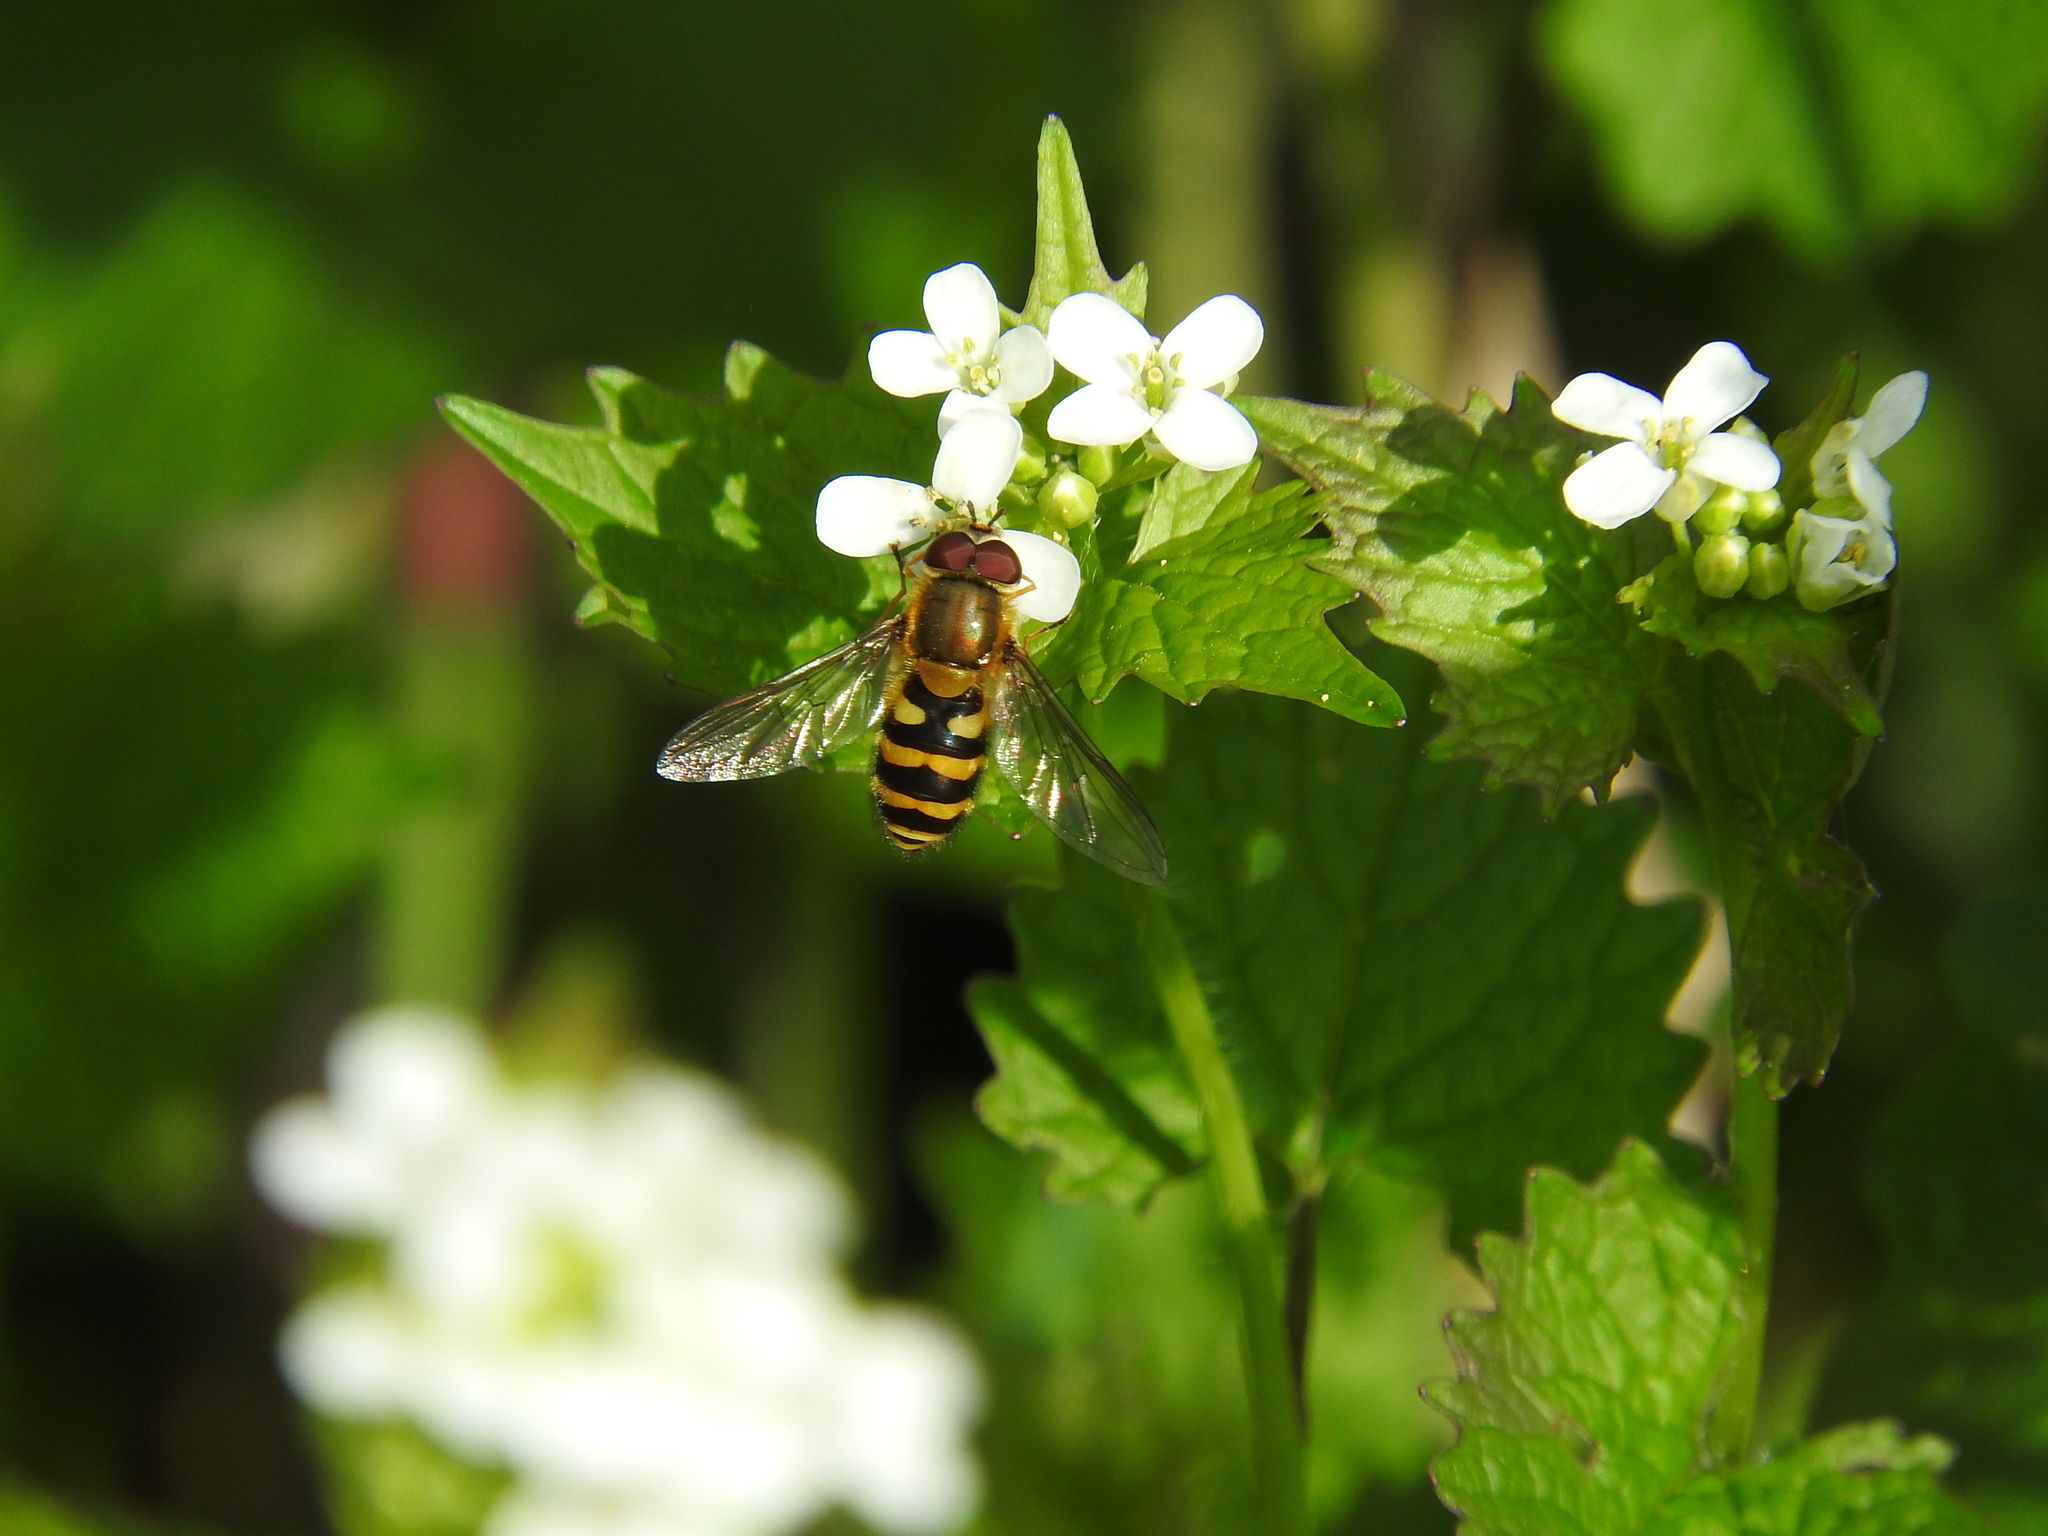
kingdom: Animalia
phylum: Arthropoda
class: Insecta
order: Diptera
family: Syrphidae
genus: Syrphus
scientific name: Syrphus
